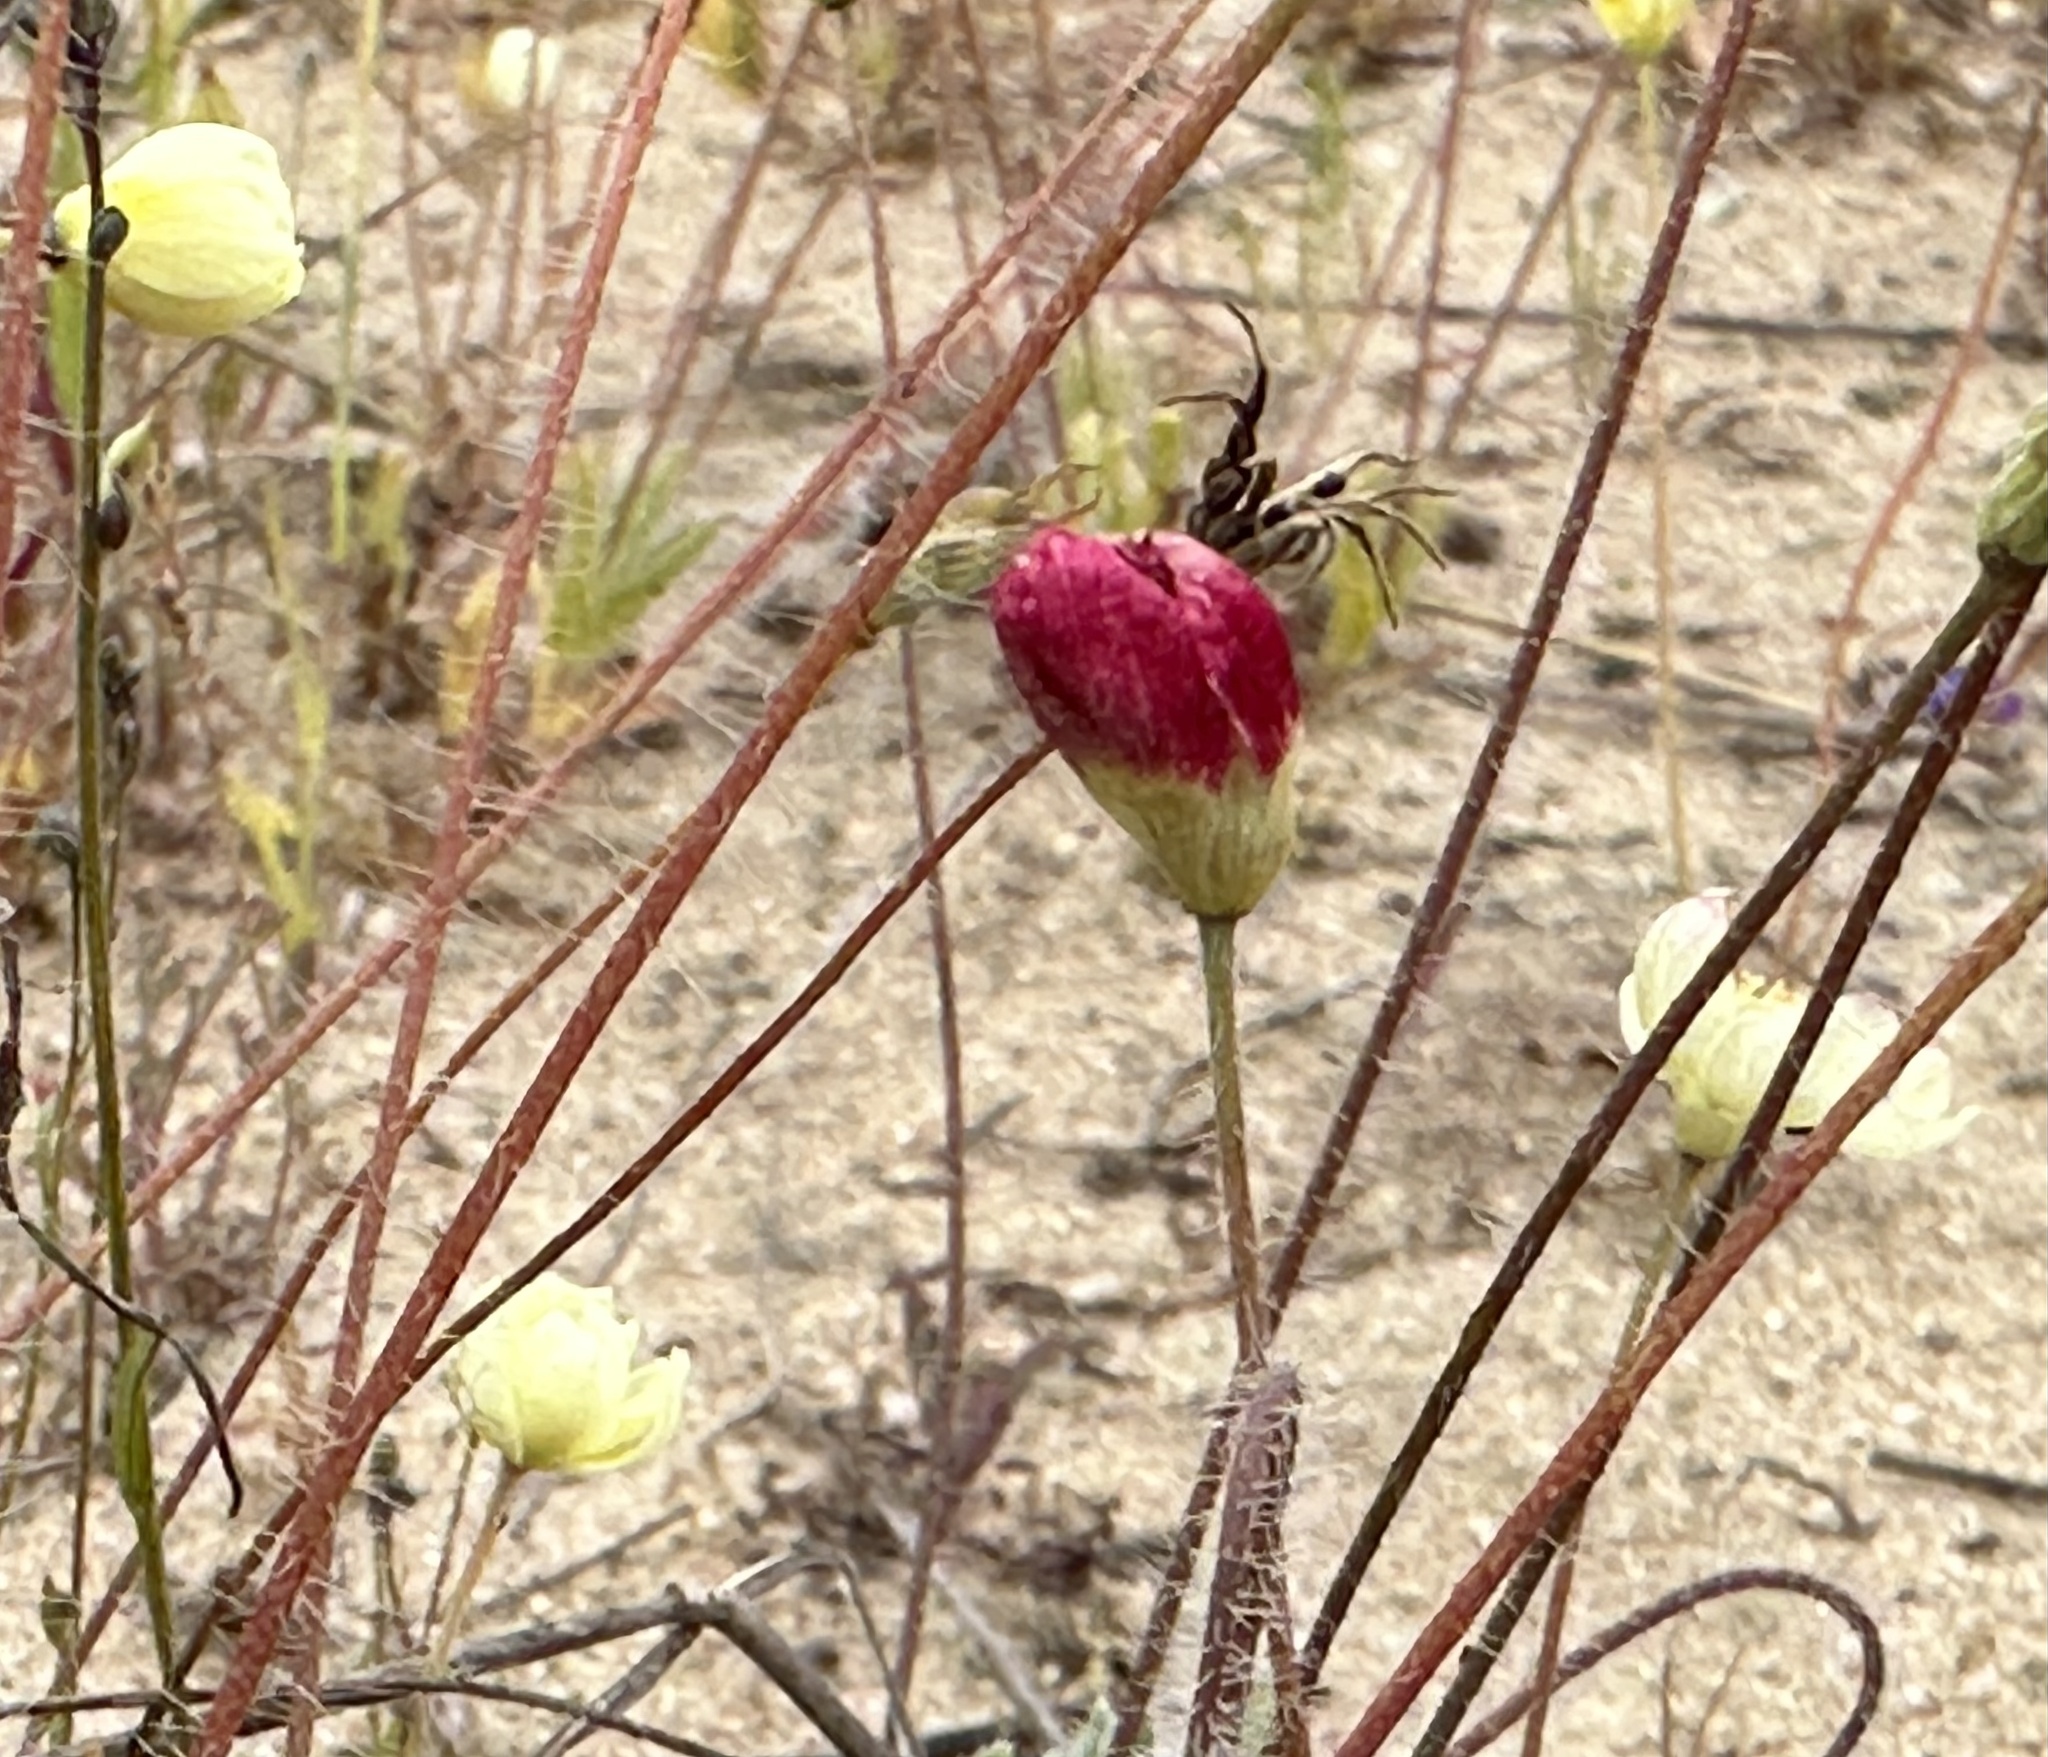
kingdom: Plantae
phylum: Tracheophyta
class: Magnoliopsida
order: Ranunculales
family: Papaveraceae
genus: Platystemon
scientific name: Platystemon californicus
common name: Cream-cups
